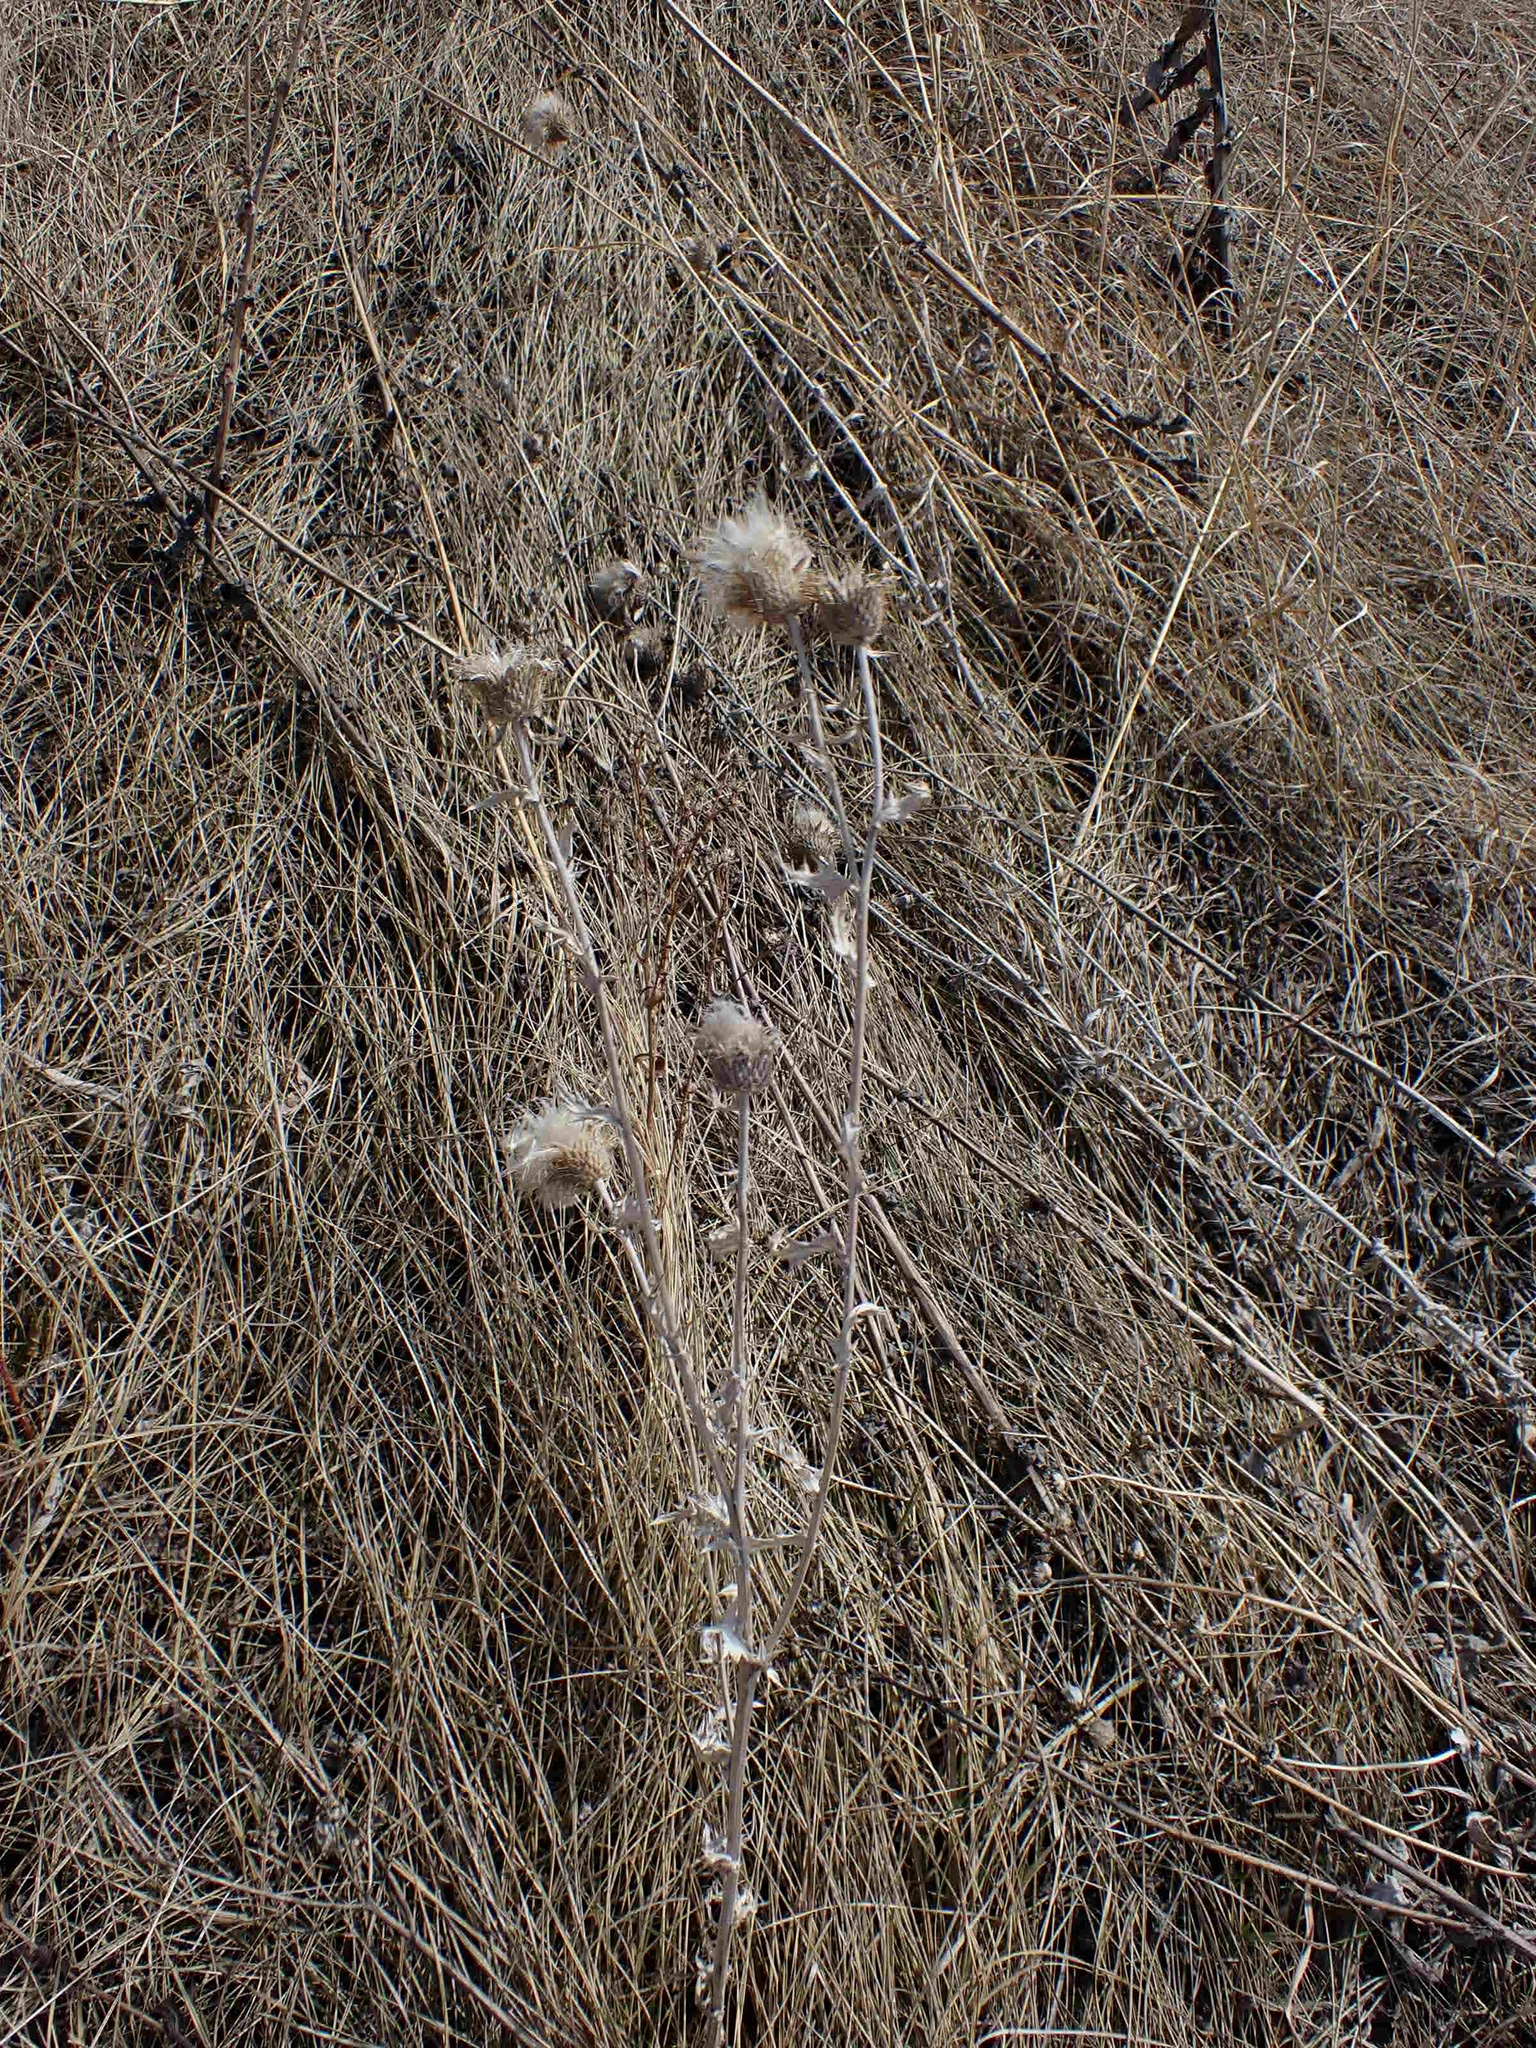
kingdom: Plantae
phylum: Tracheophyta
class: Magnoliopsida
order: Asterales
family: Asteraceae
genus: Cirsium
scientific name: Cirsium flodmanii
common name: Flodman's thistle
